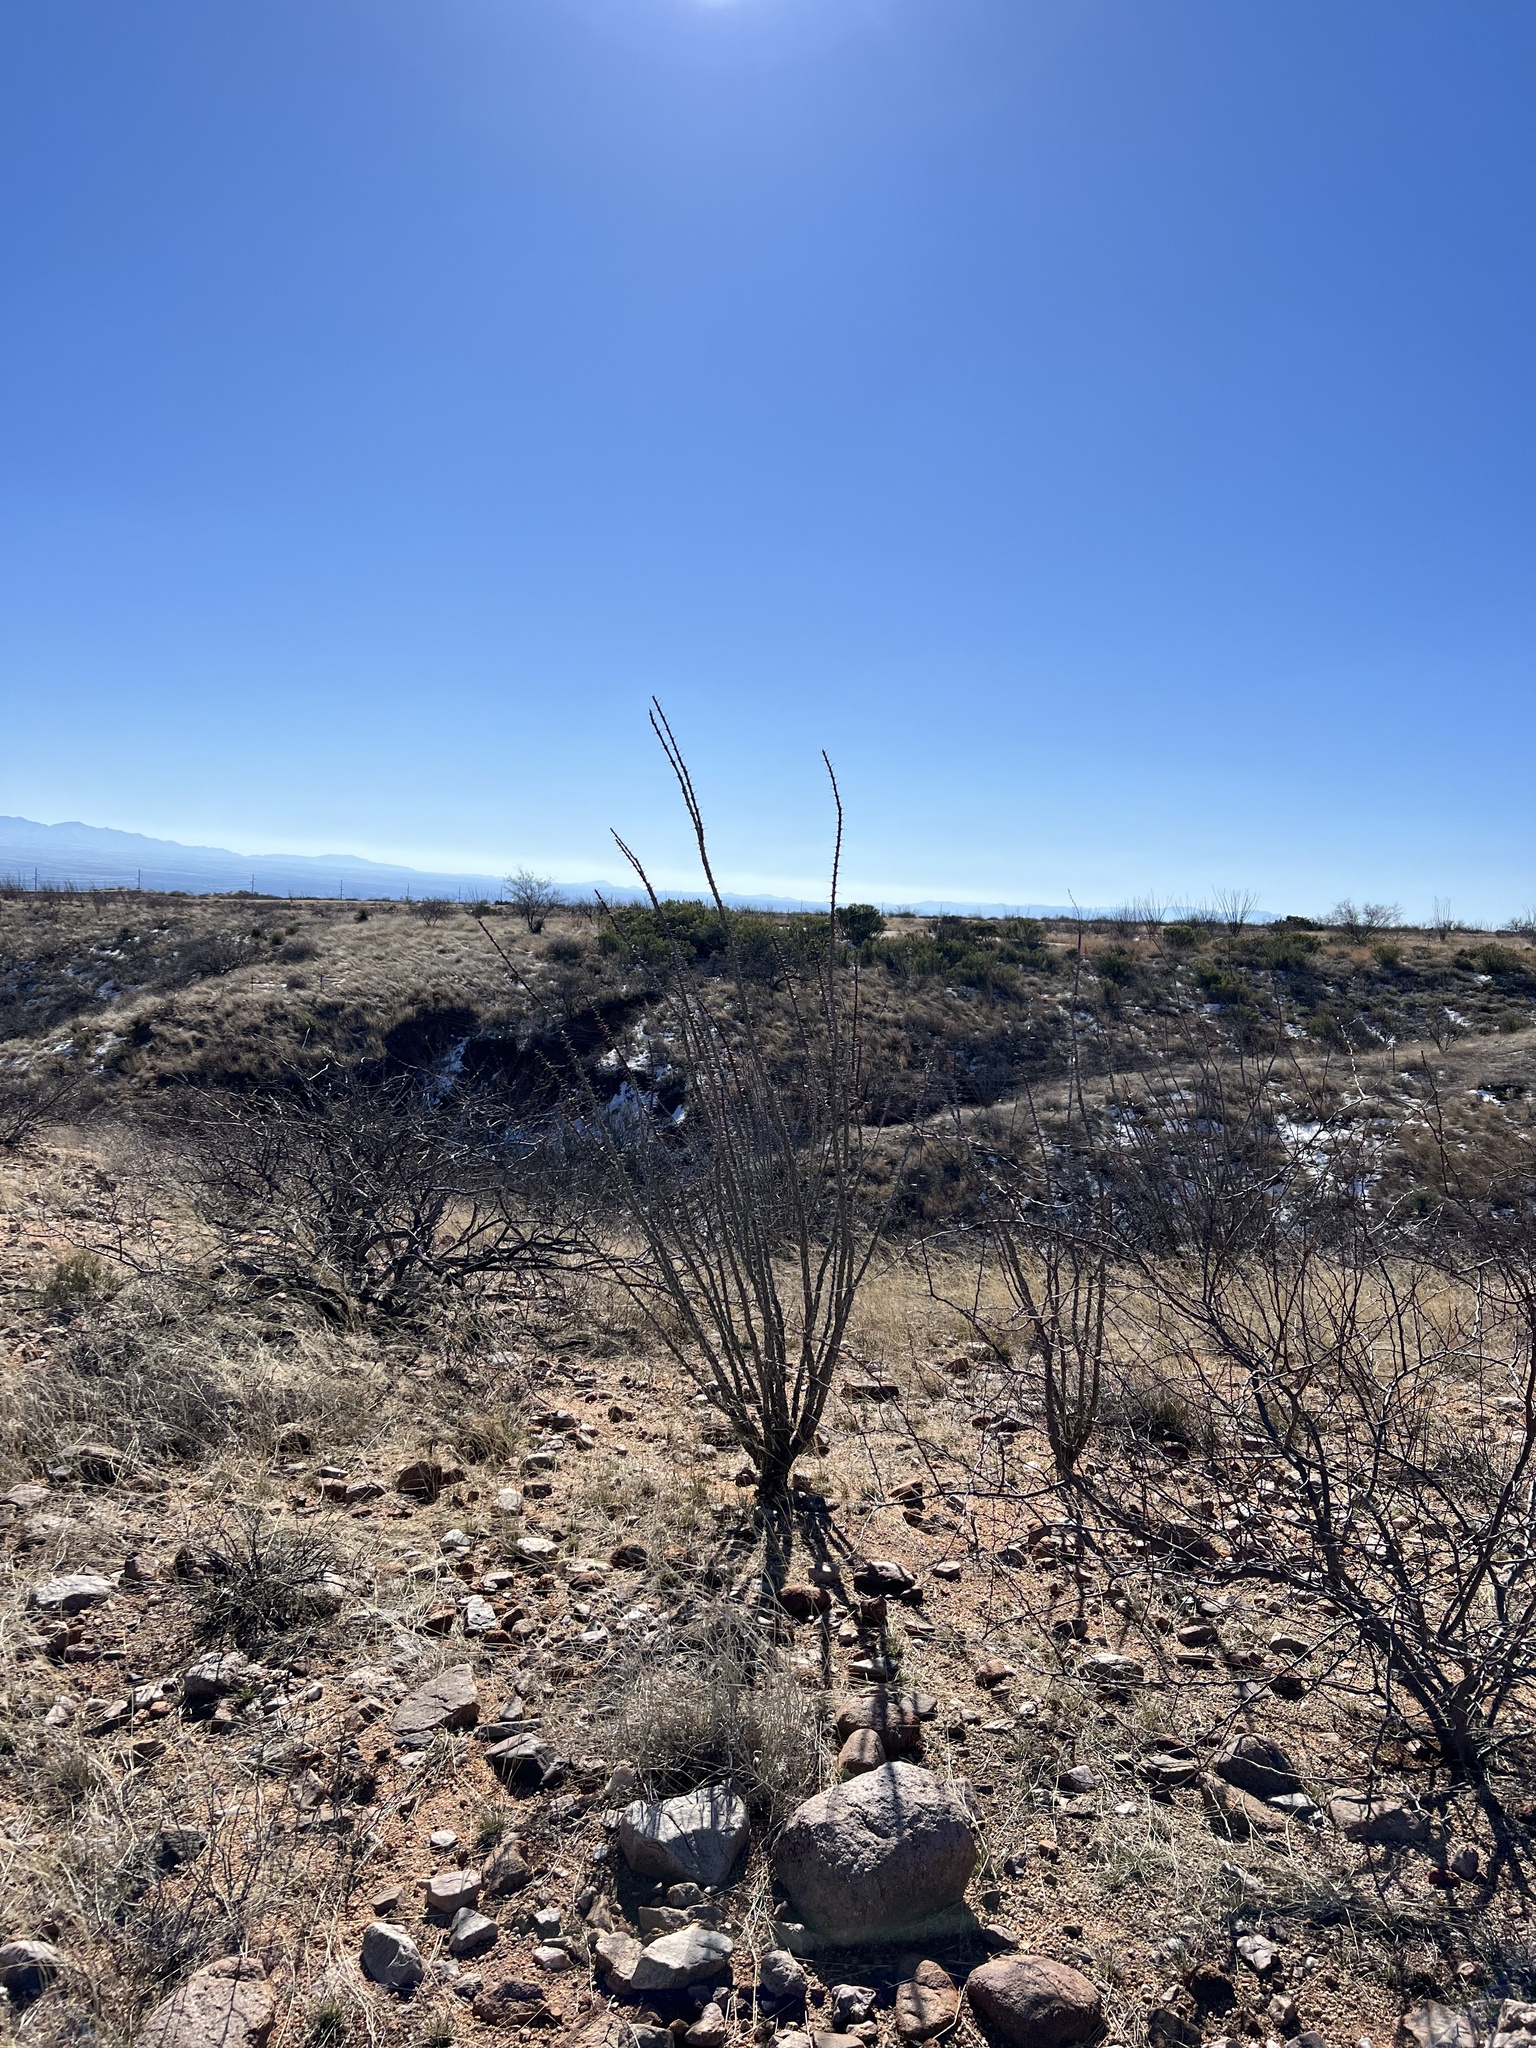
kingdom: Plantae
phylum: Tracheophyta
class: Magnoliopsida
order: Ericales
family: Fouquieriaceae
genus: Fouquieria
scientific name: Fouquieria splendens
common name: Vine-cactus
